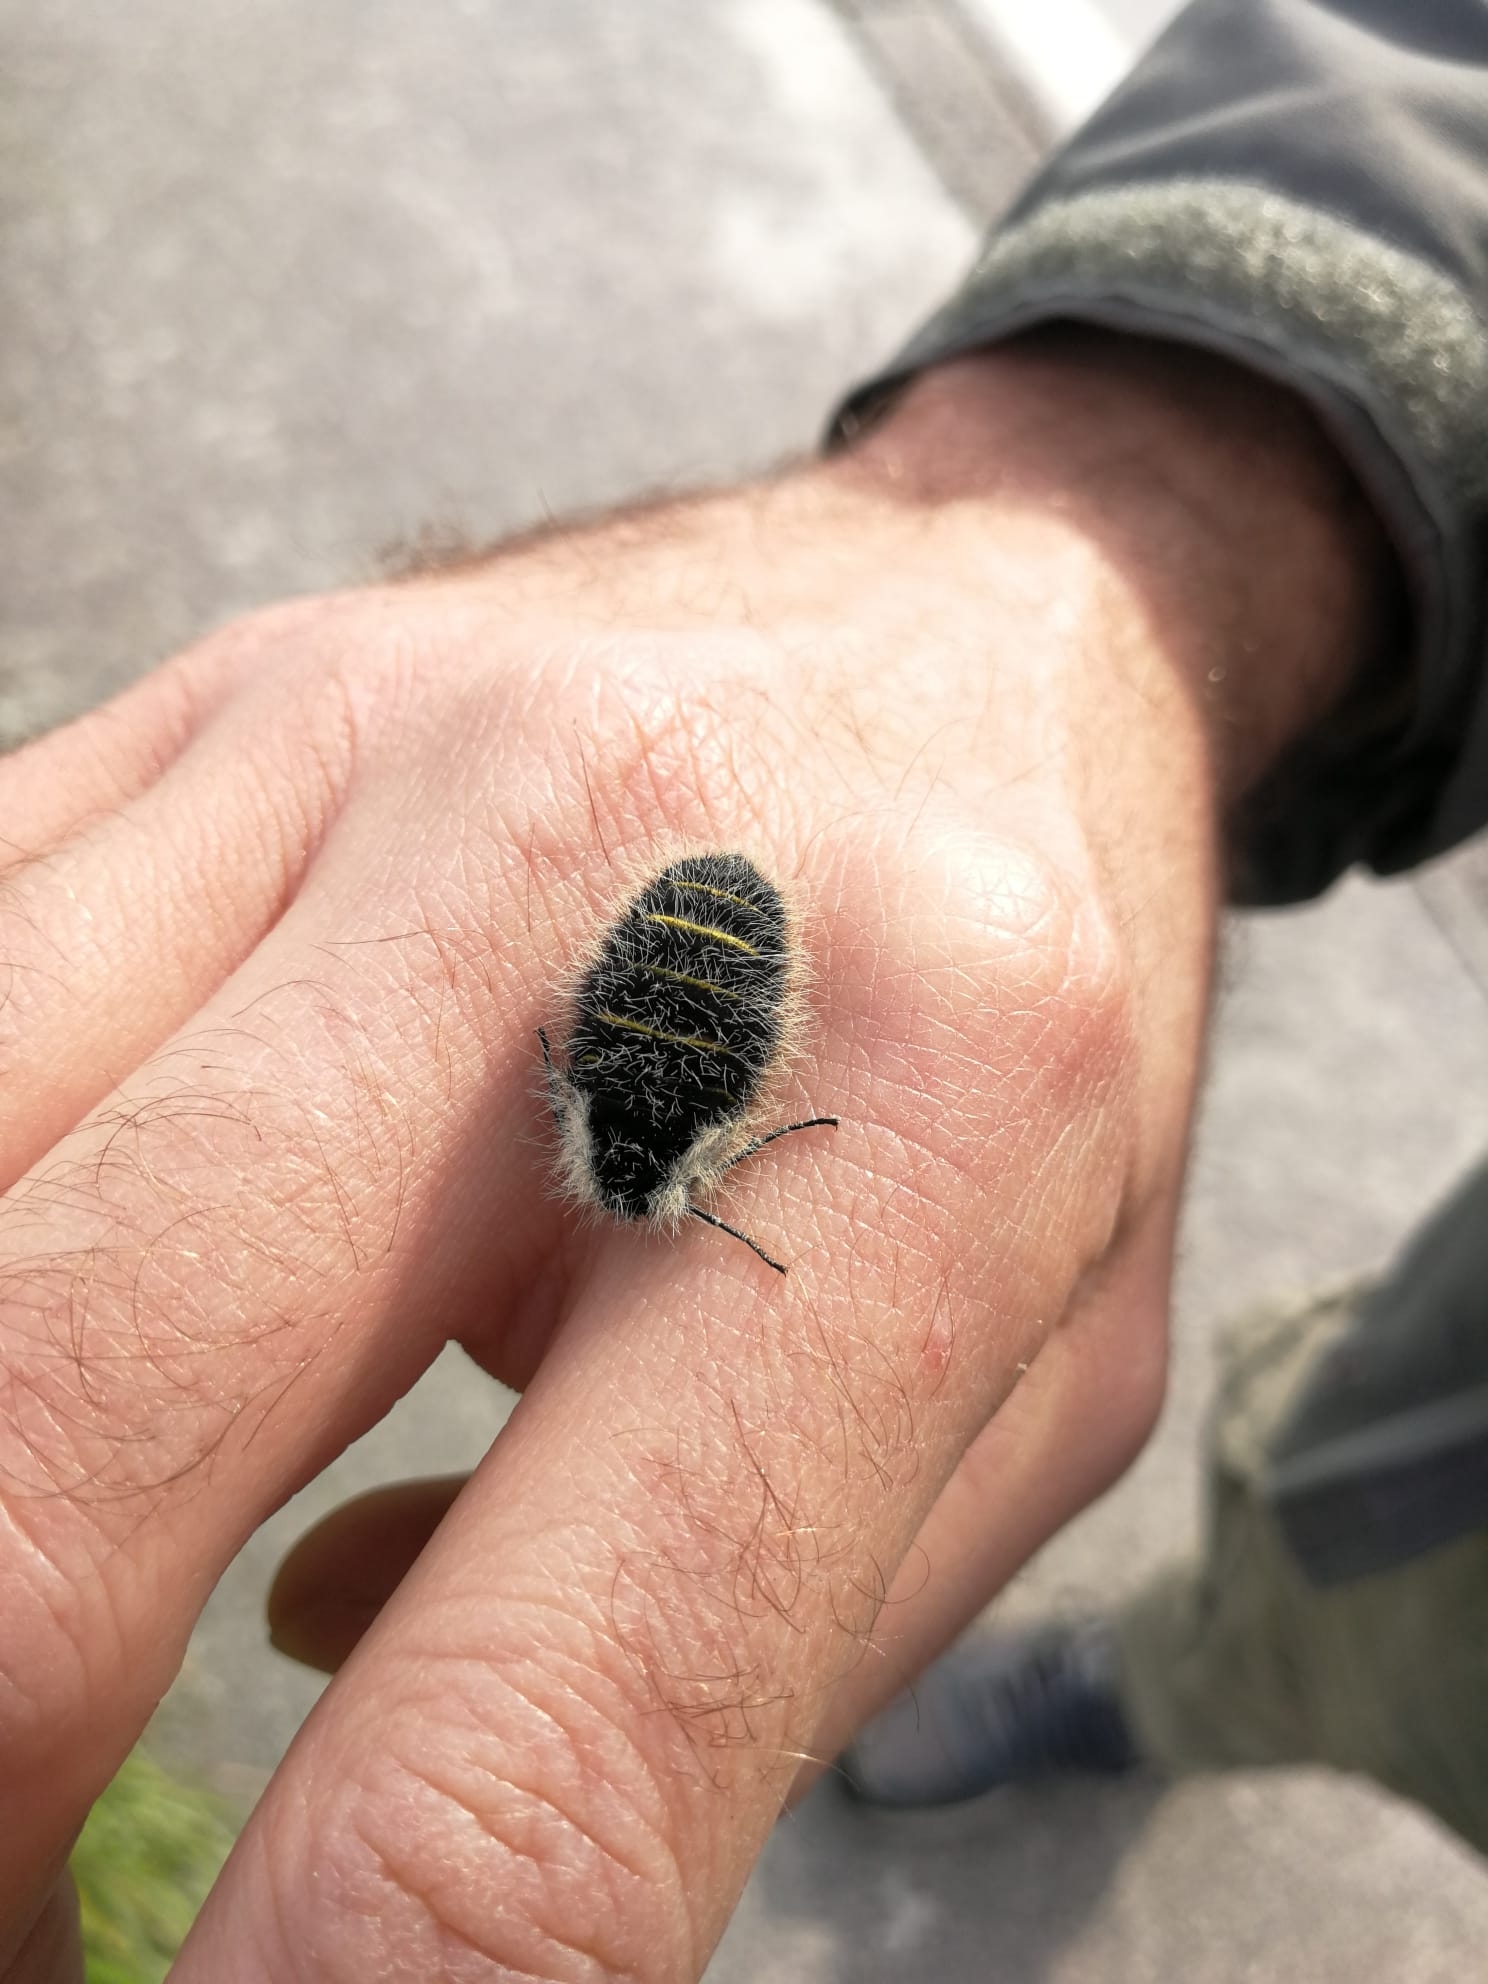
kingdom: Animalia
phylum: Arthropoda
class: Insecta
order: Lepidoptera
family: Geometridae
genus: Lycia
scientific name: Lycia florentina
